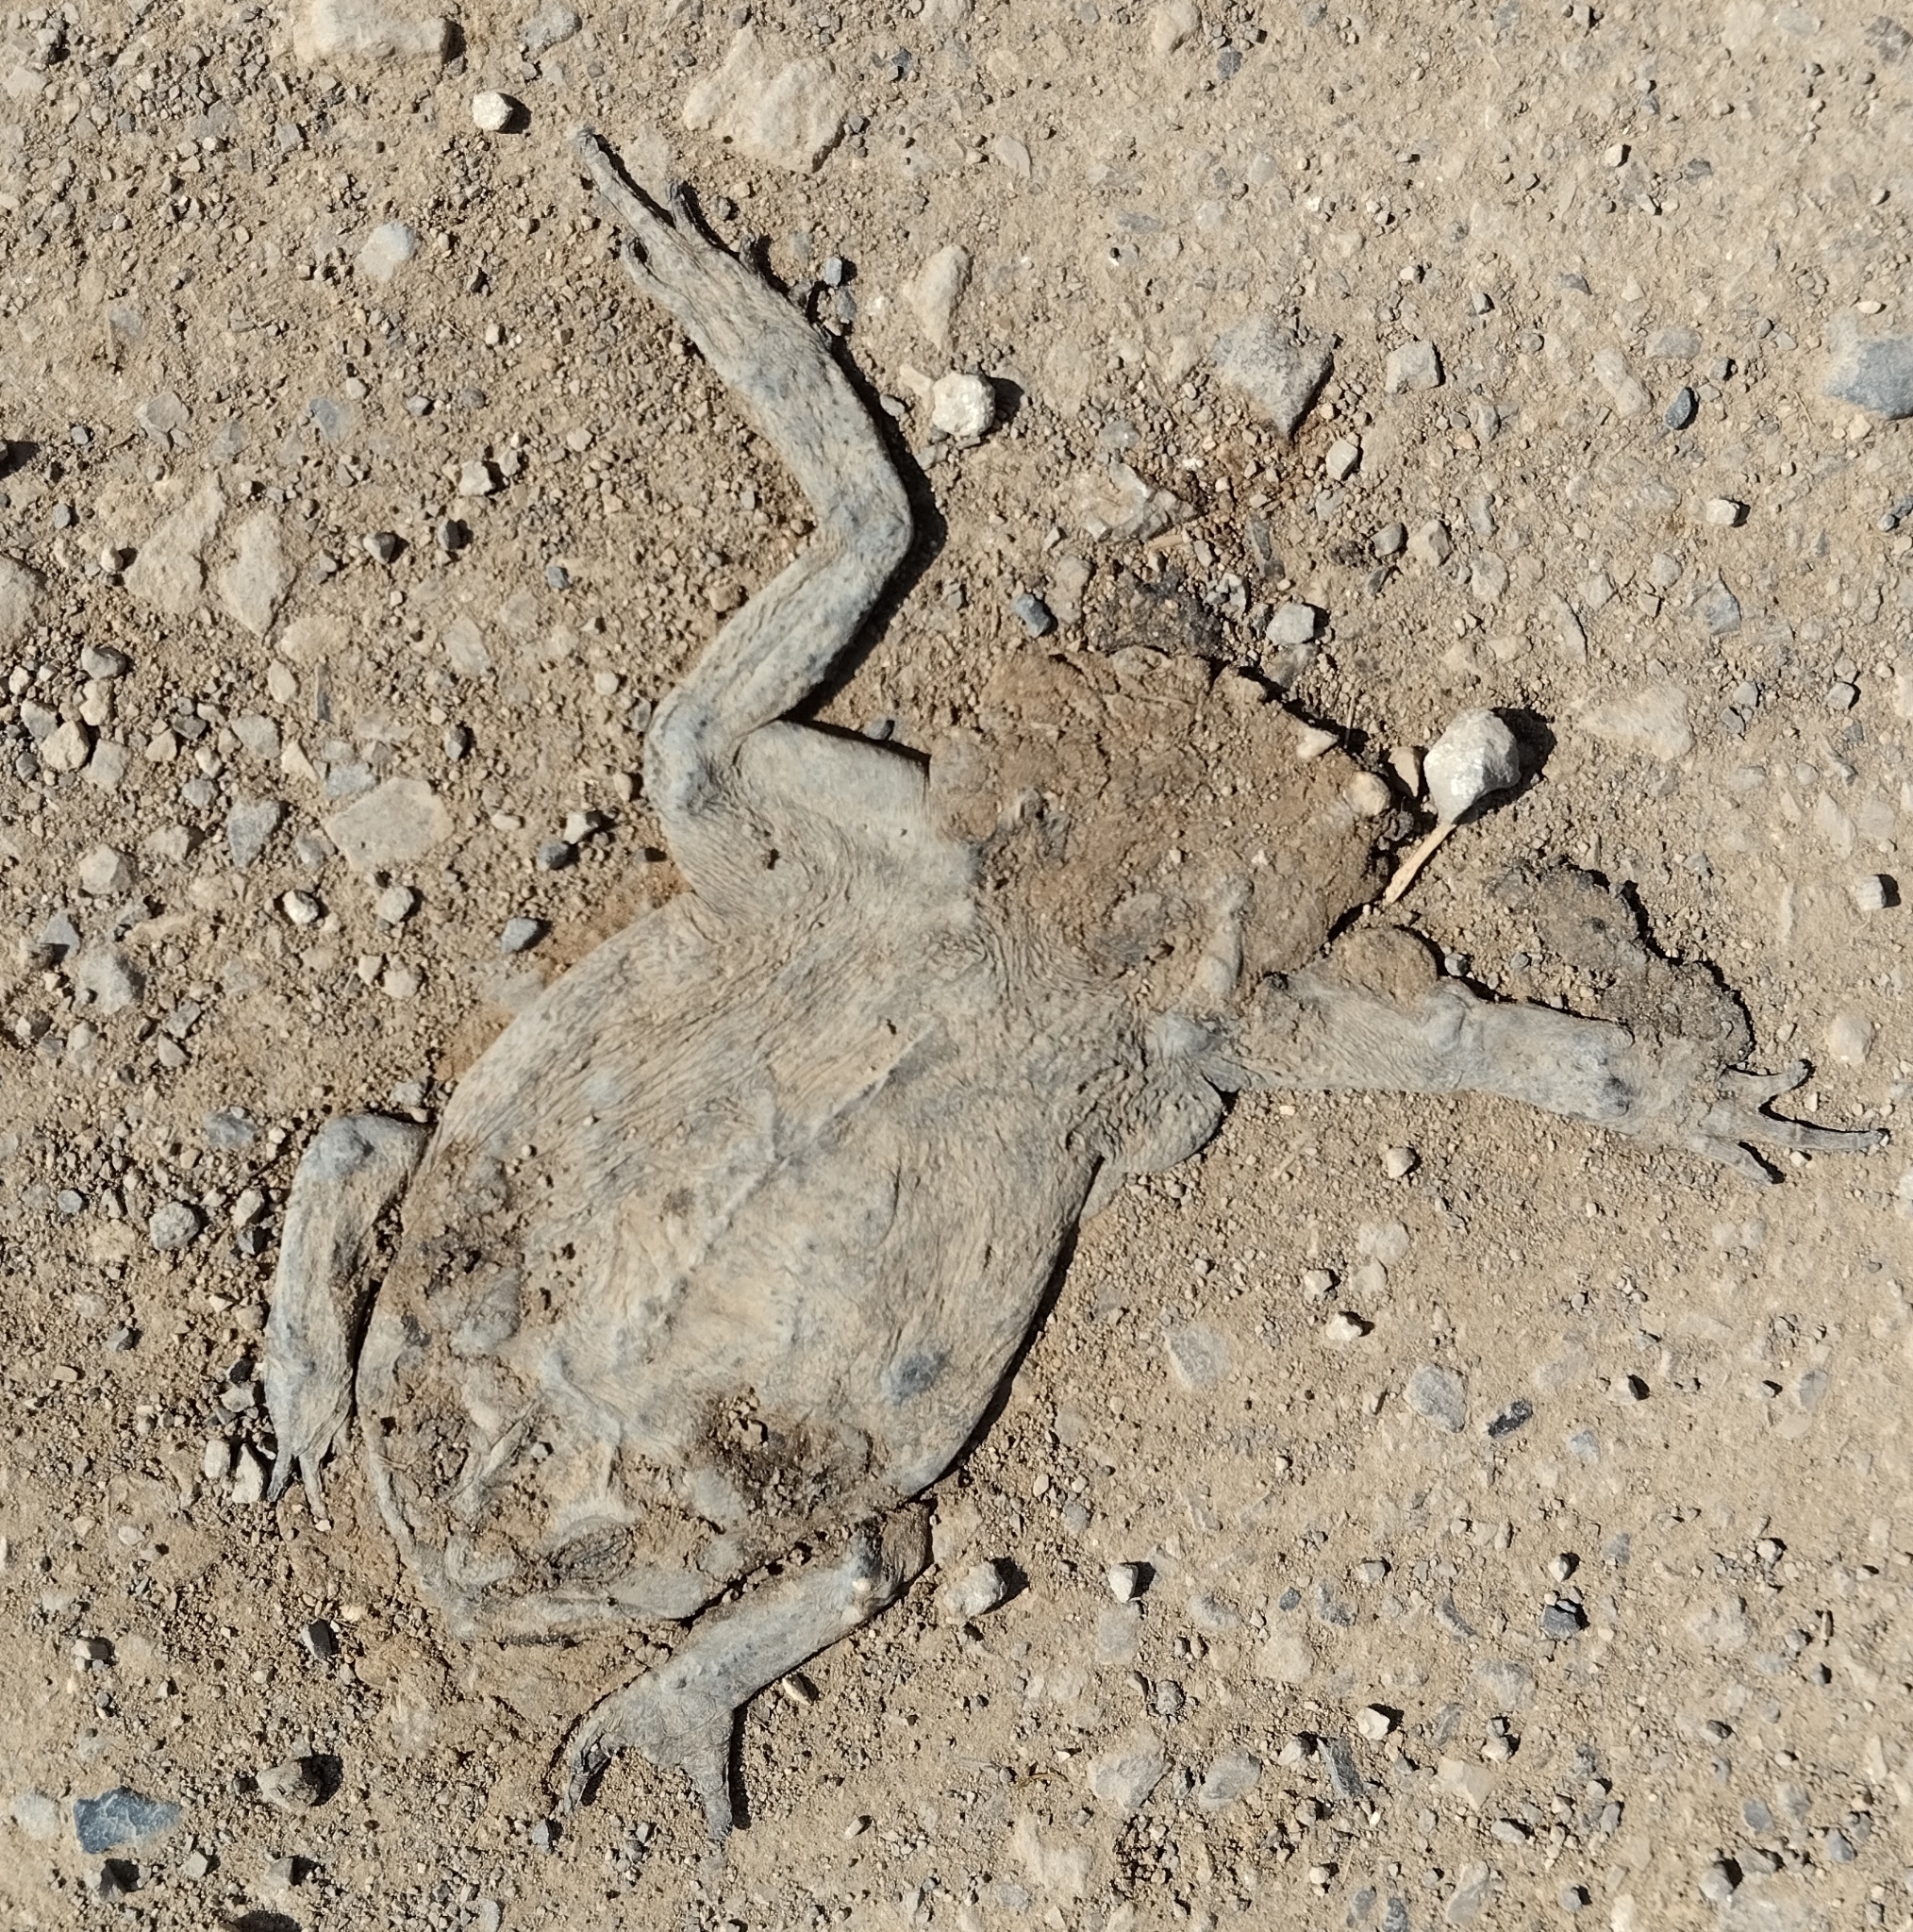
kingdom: Animalia
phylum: Chordata
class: Amphibia
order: Anura
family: Bufonidae
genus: Rhinella
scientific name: Rhinella horribilis
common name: Mesoamerican cane toad
